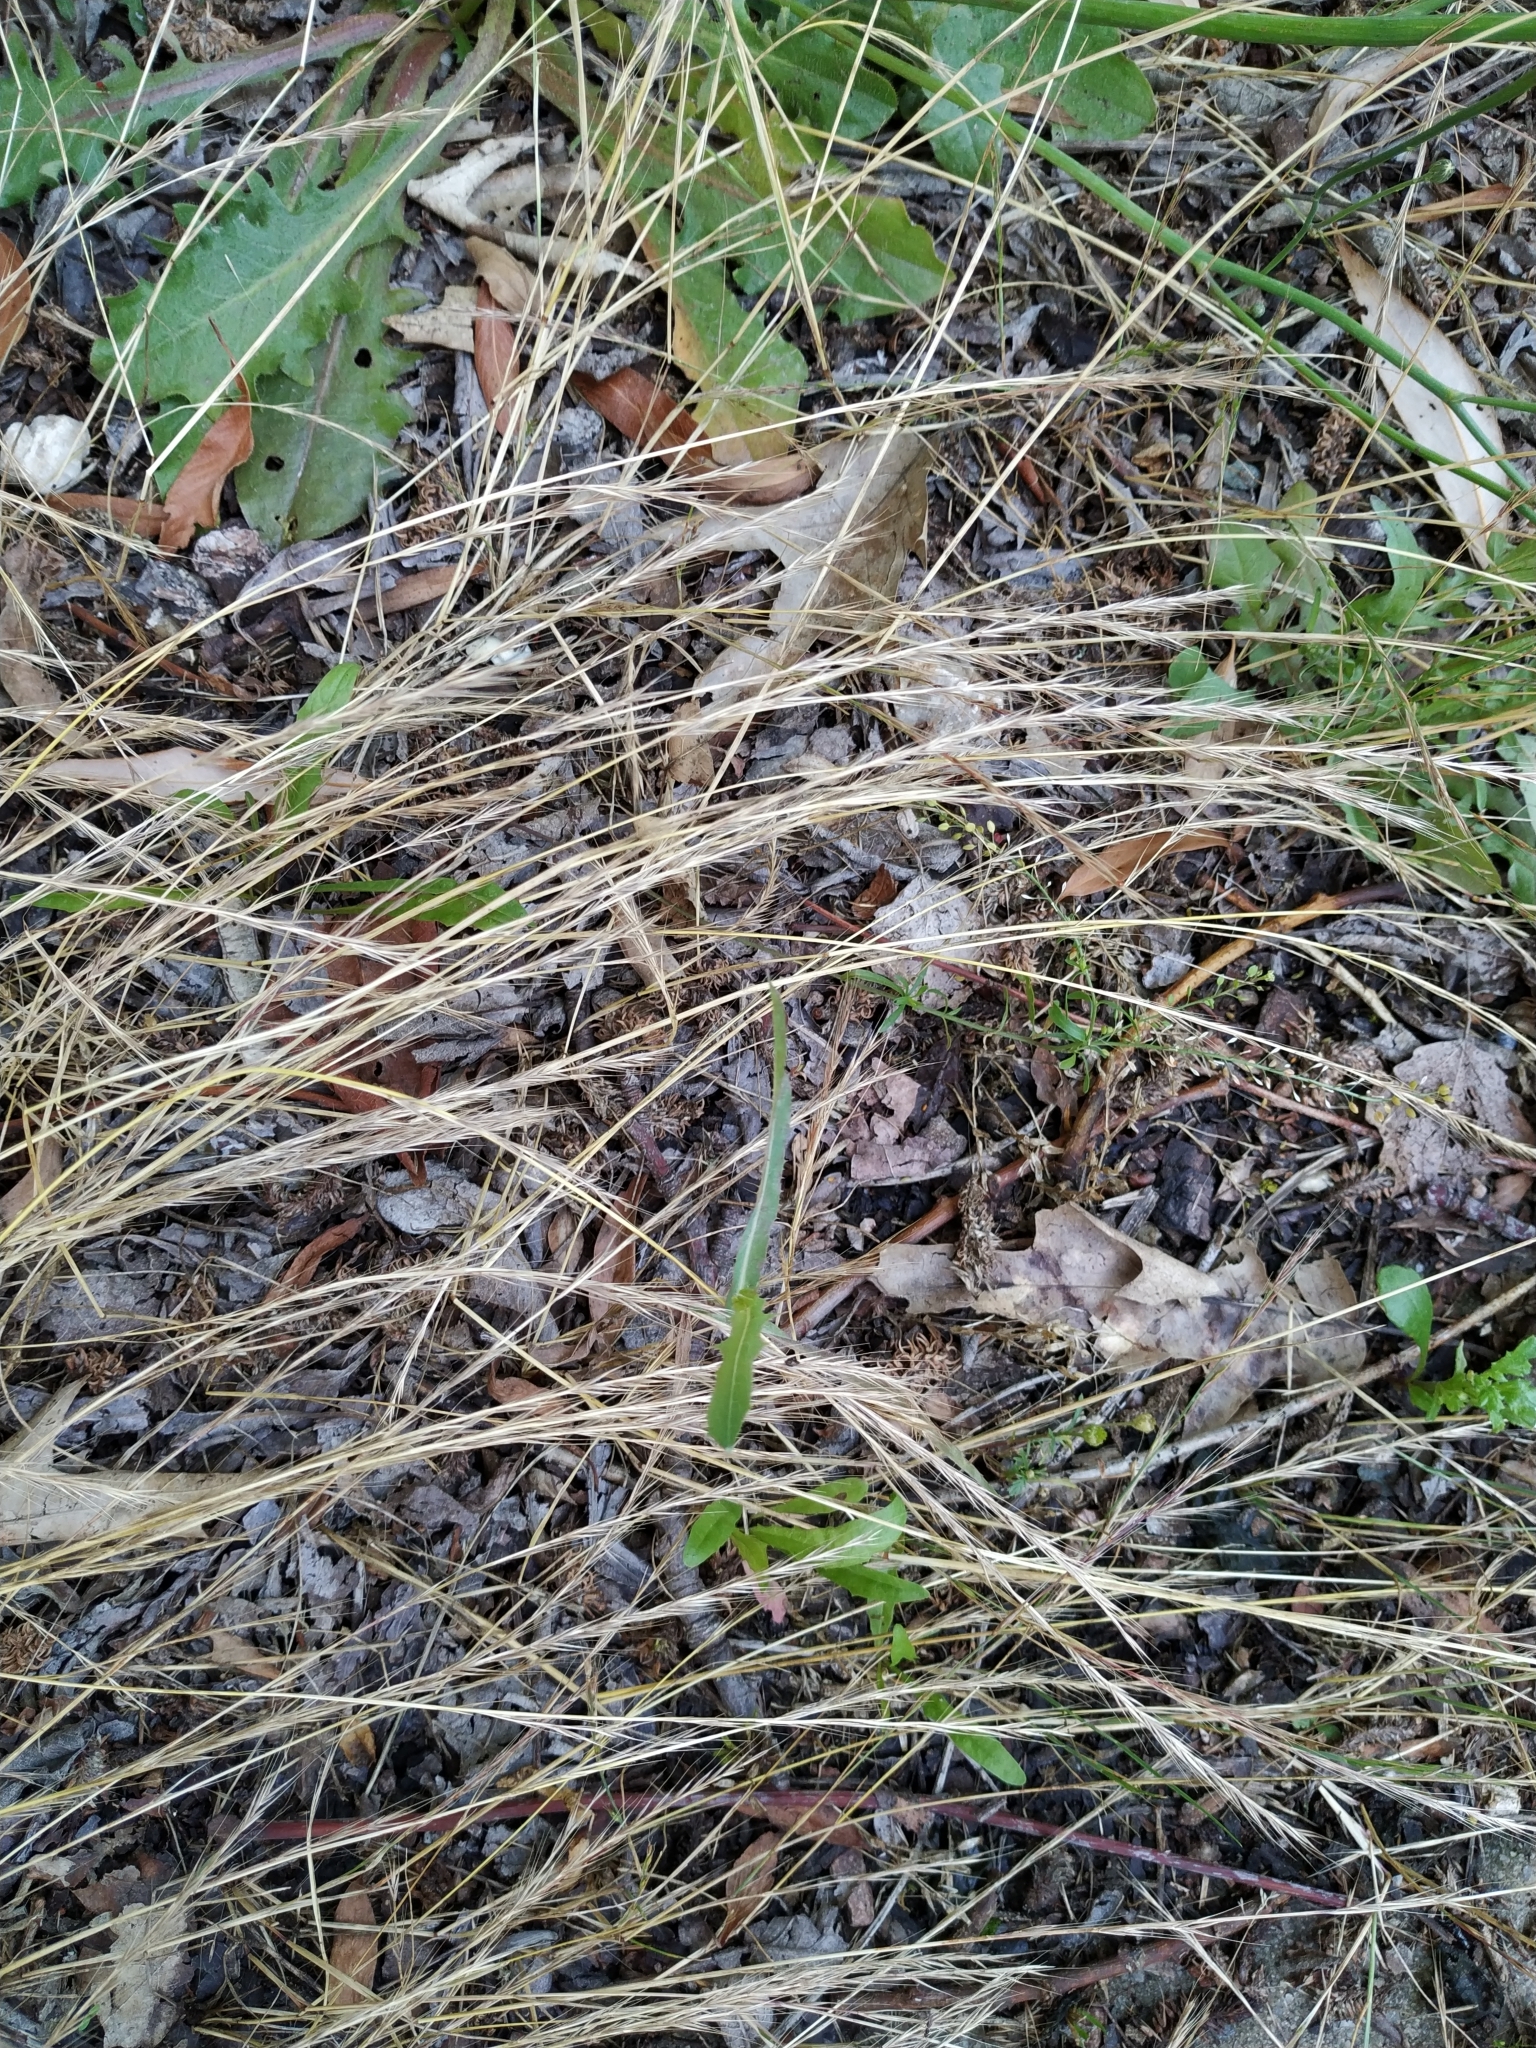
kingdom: Plantae
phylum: Tracheophyta
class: Liliopsida
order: Poales
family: Poaceae
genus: Festuca
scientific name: Festuca myuros
